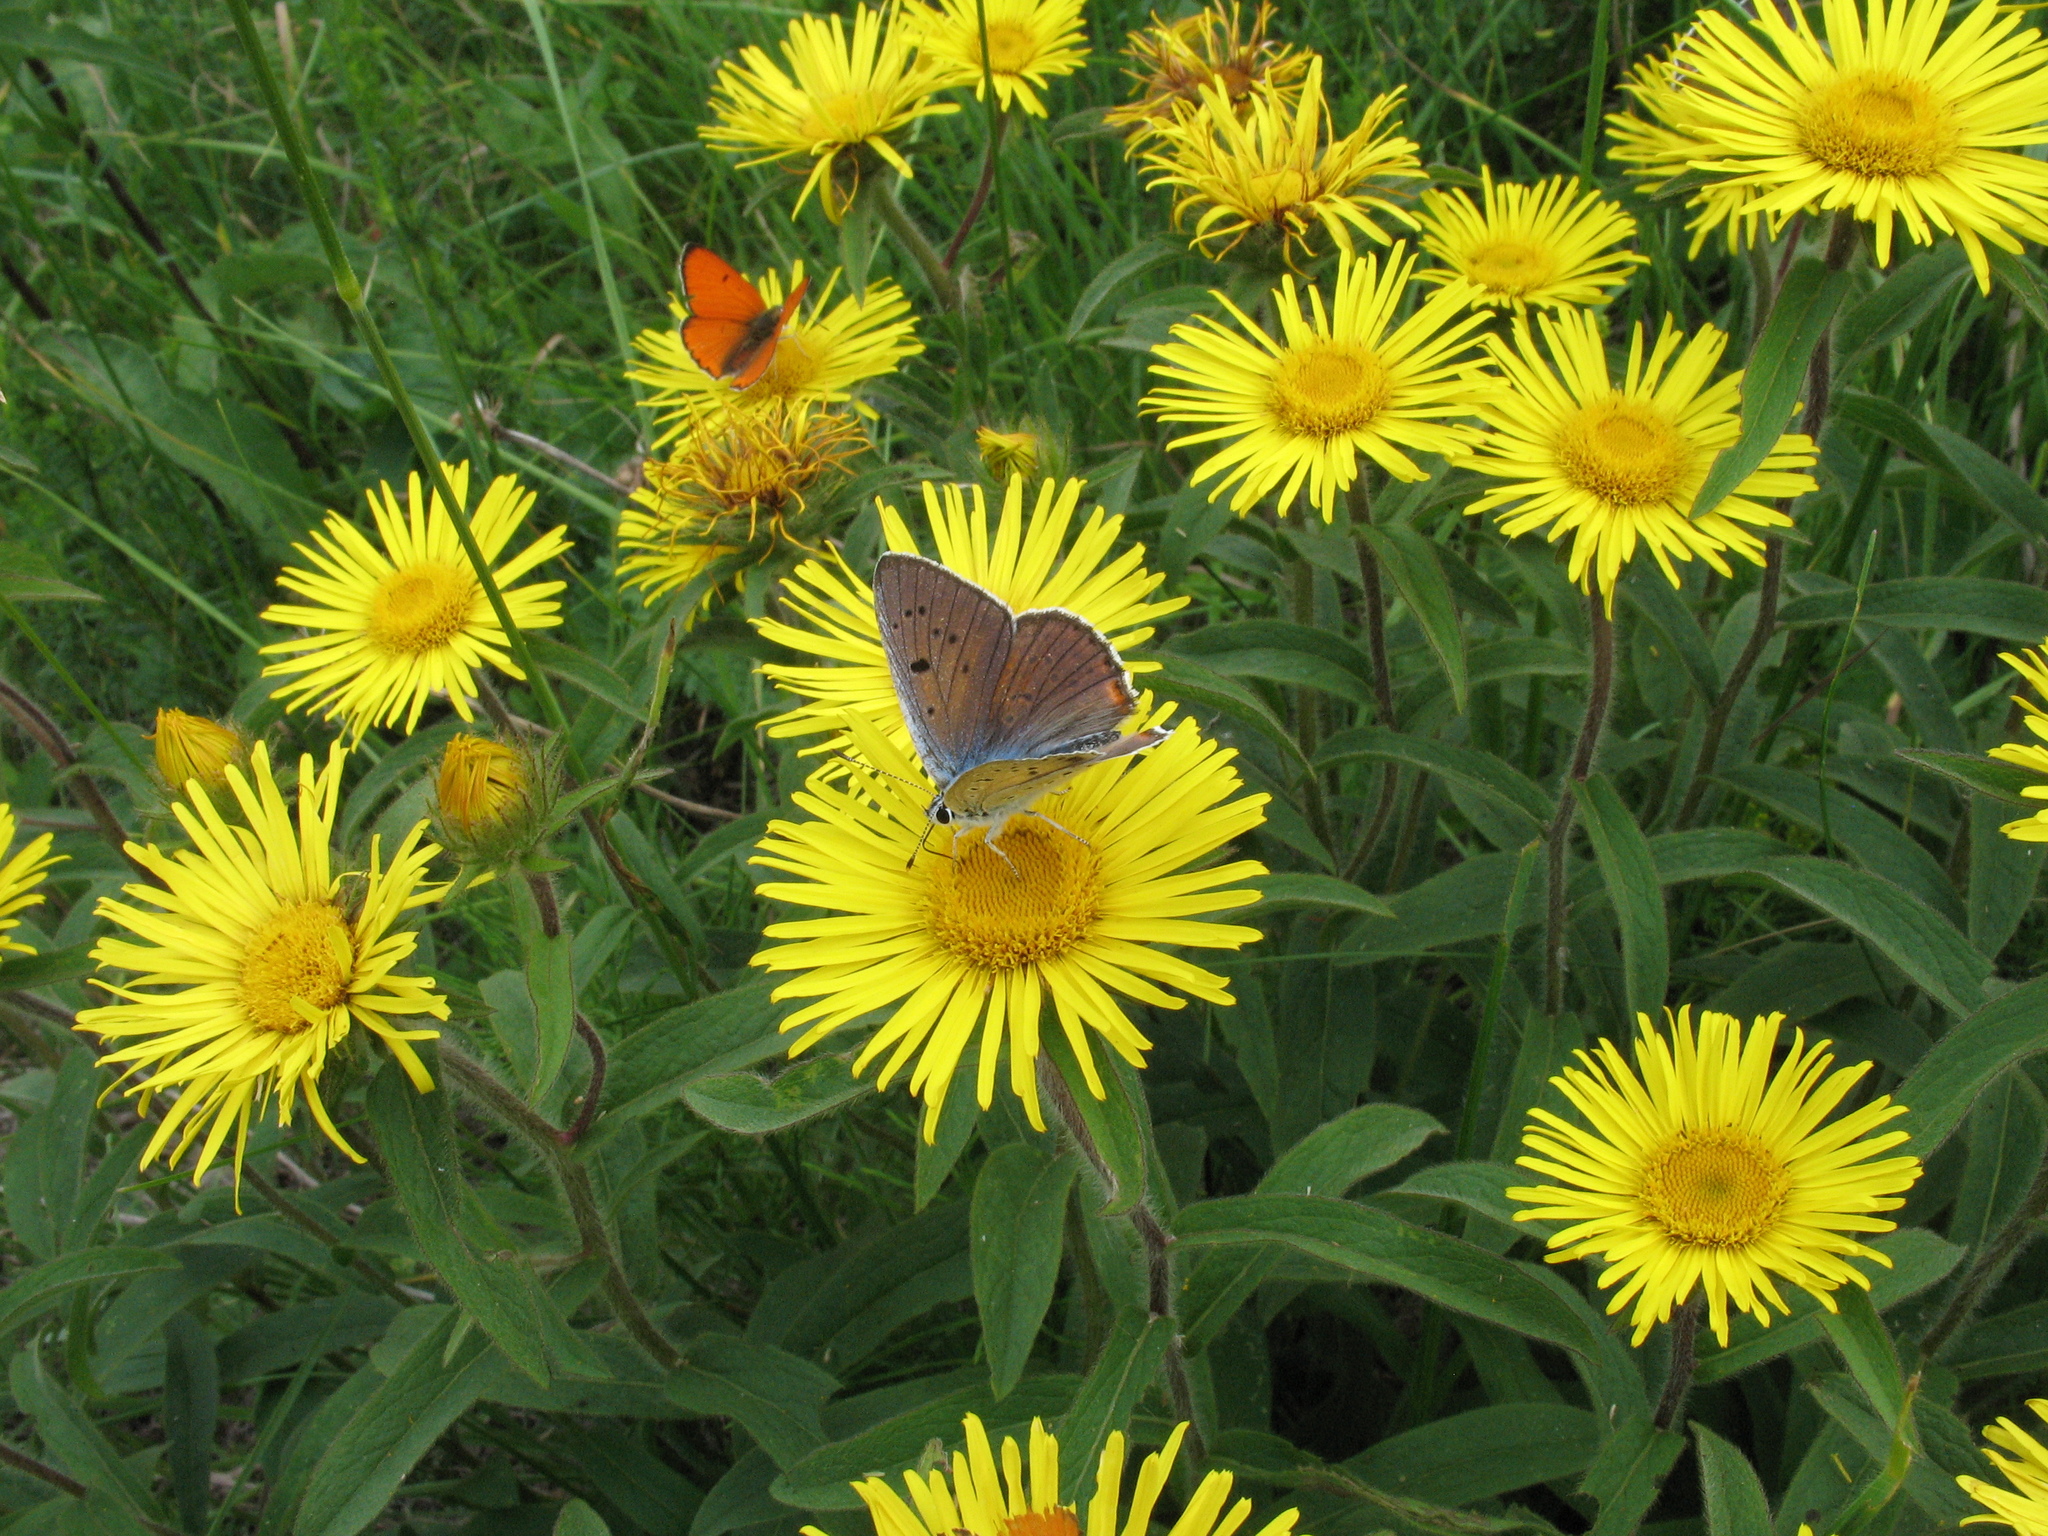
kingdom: Animalia
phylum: Arthropoda
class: Insecta
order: Lepidoptera
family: Lycaenidae
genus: Lycaena
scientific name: Lycaena alciphron
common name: Purple-shot copper
